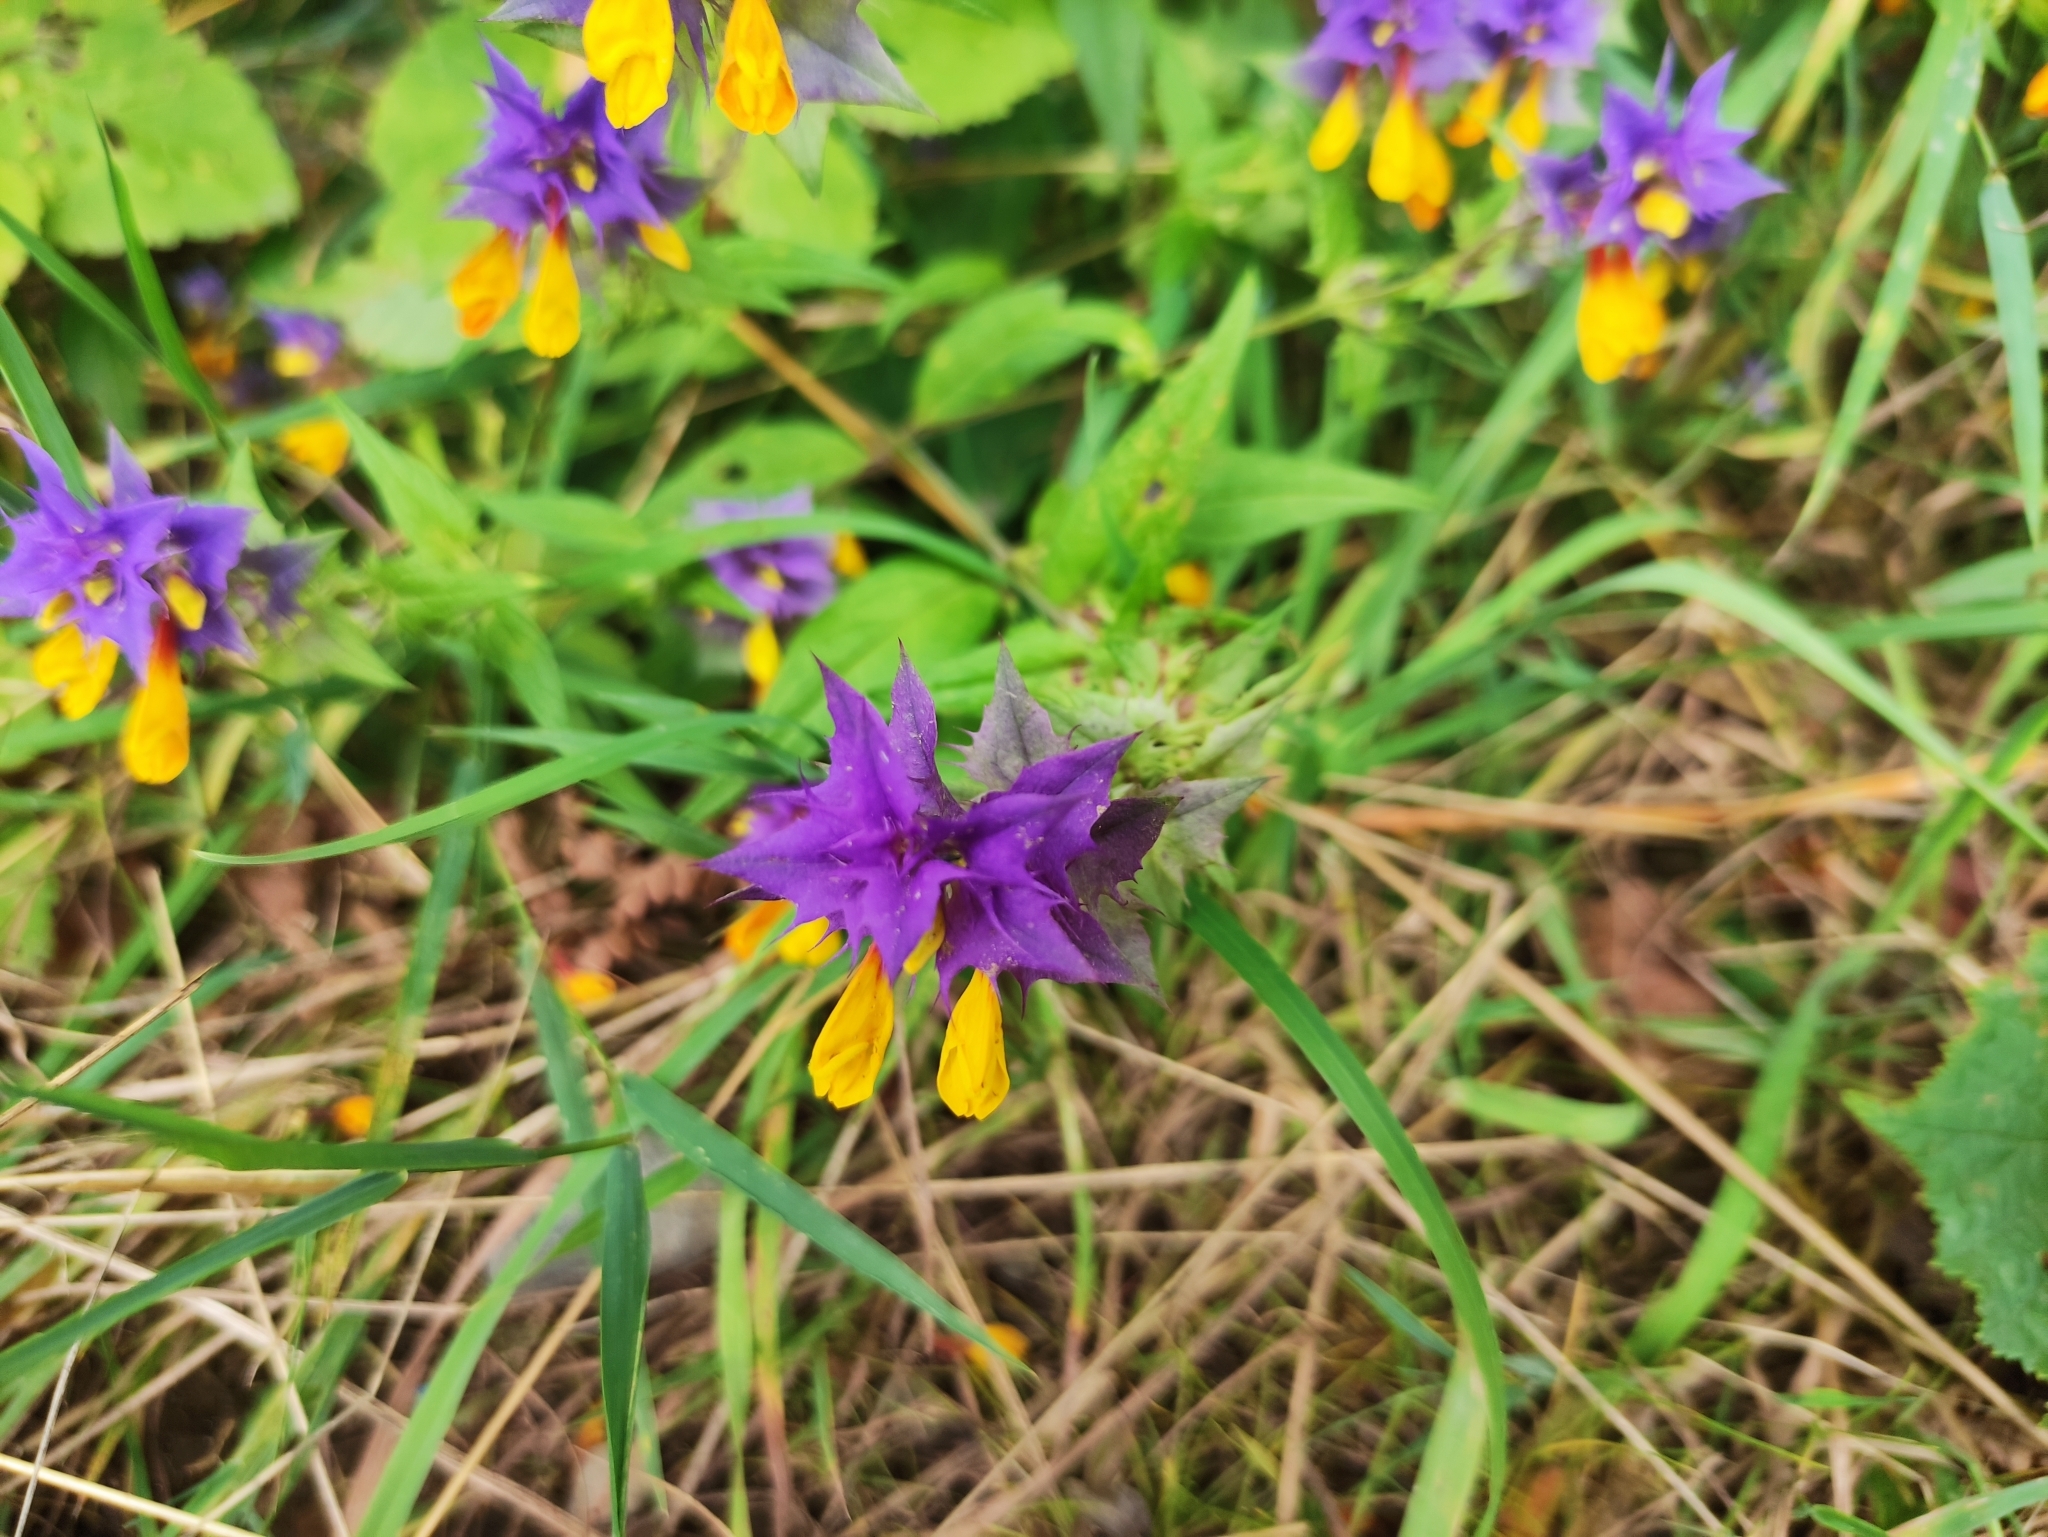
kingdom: Plantae
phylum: Tracheophyta
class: Magnoliopsida
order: Lamiales
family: Orobanchaceae
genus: Melampyrum
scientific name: Melampyrum nemorosum
